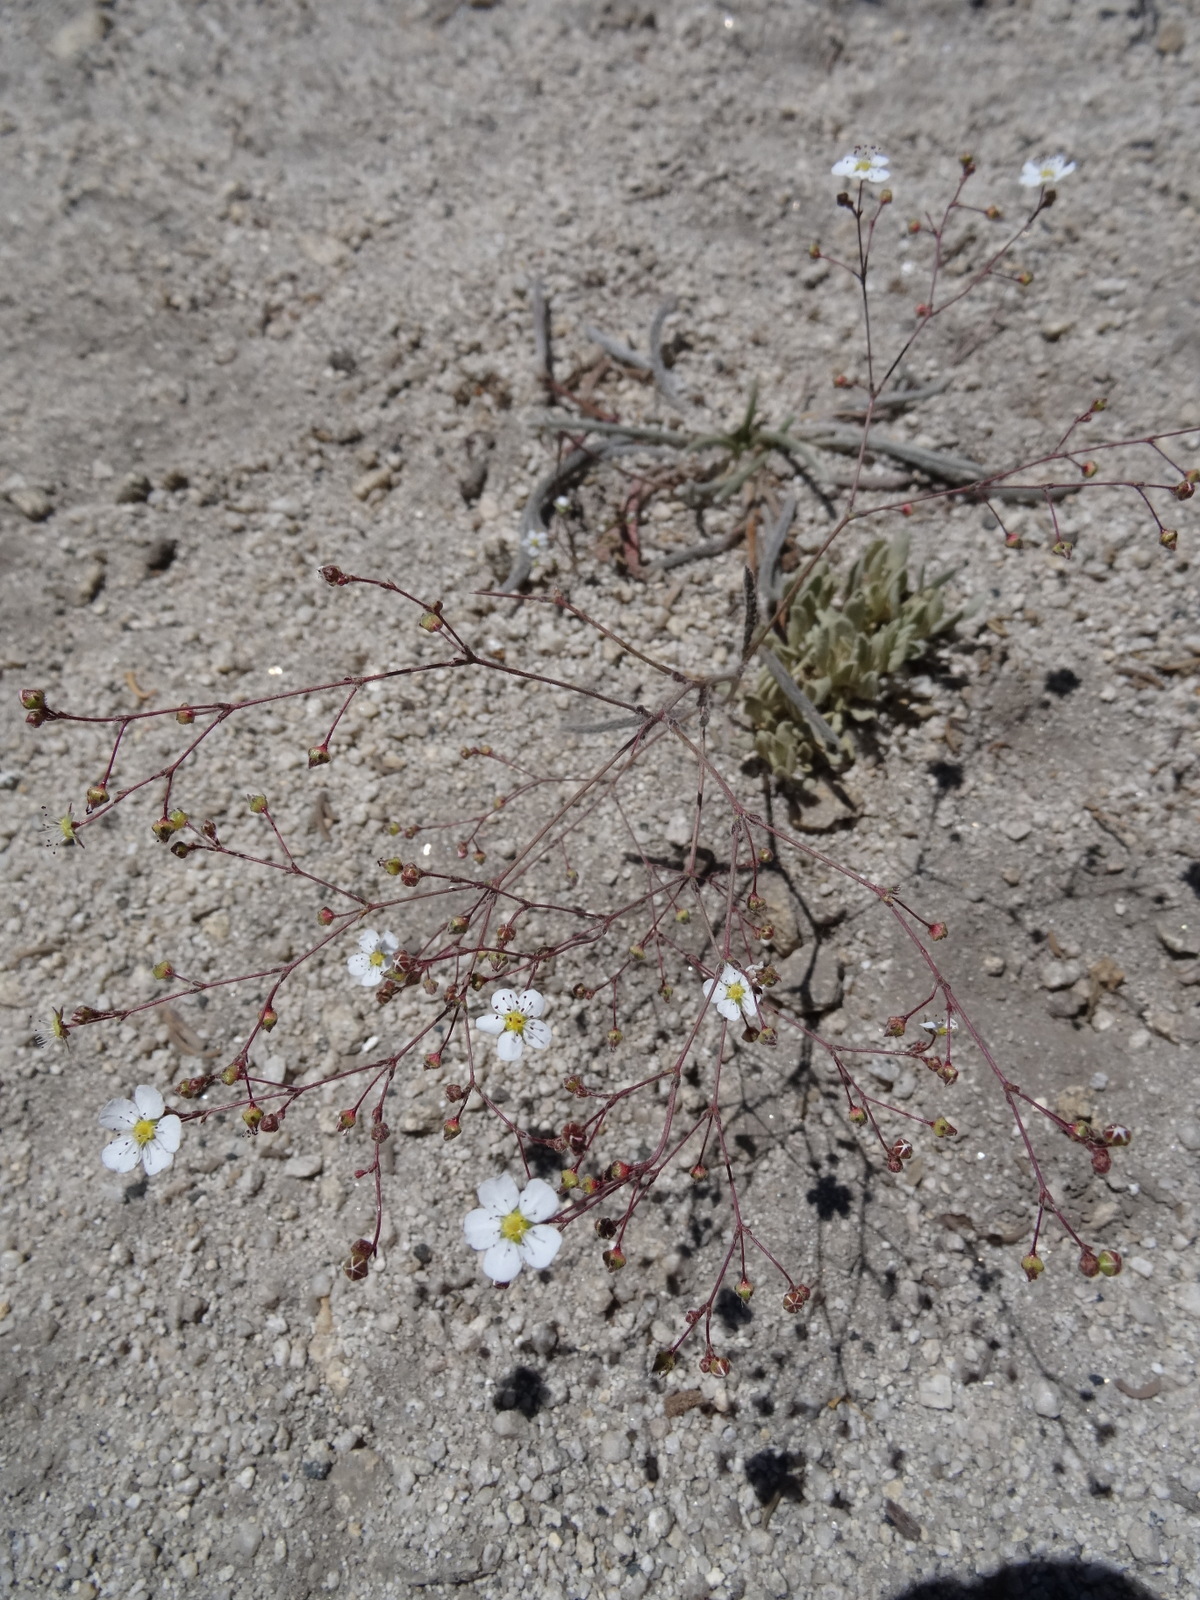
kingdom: Plantae
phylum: Tracheophyta
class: Magnoliopsida
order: Rosales
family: Rosaceae
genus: Potentilla
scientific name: Potentilla santolinoides
